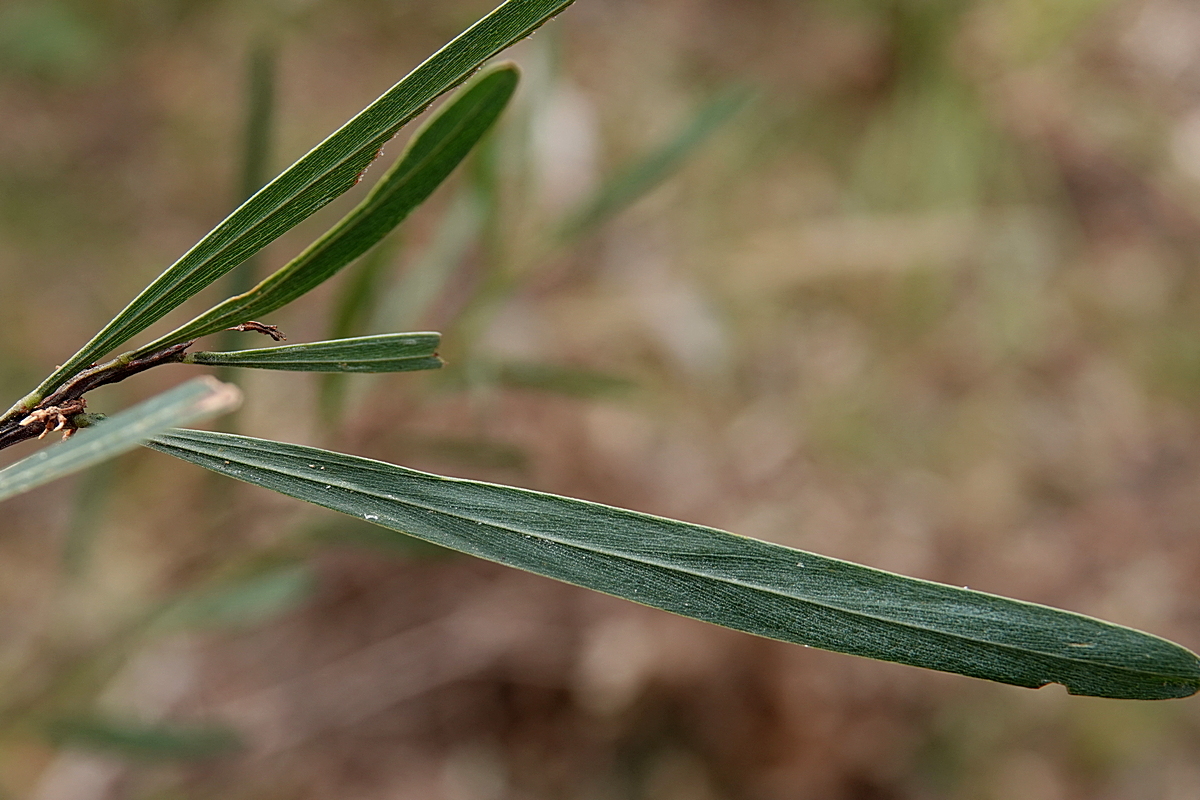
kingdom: Plantae
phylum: Tracheophyta
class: Magnoliopsida
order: Fabales
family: Fabaceae
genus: Acacia
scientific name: Acacia stricta
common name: Hop wattle
